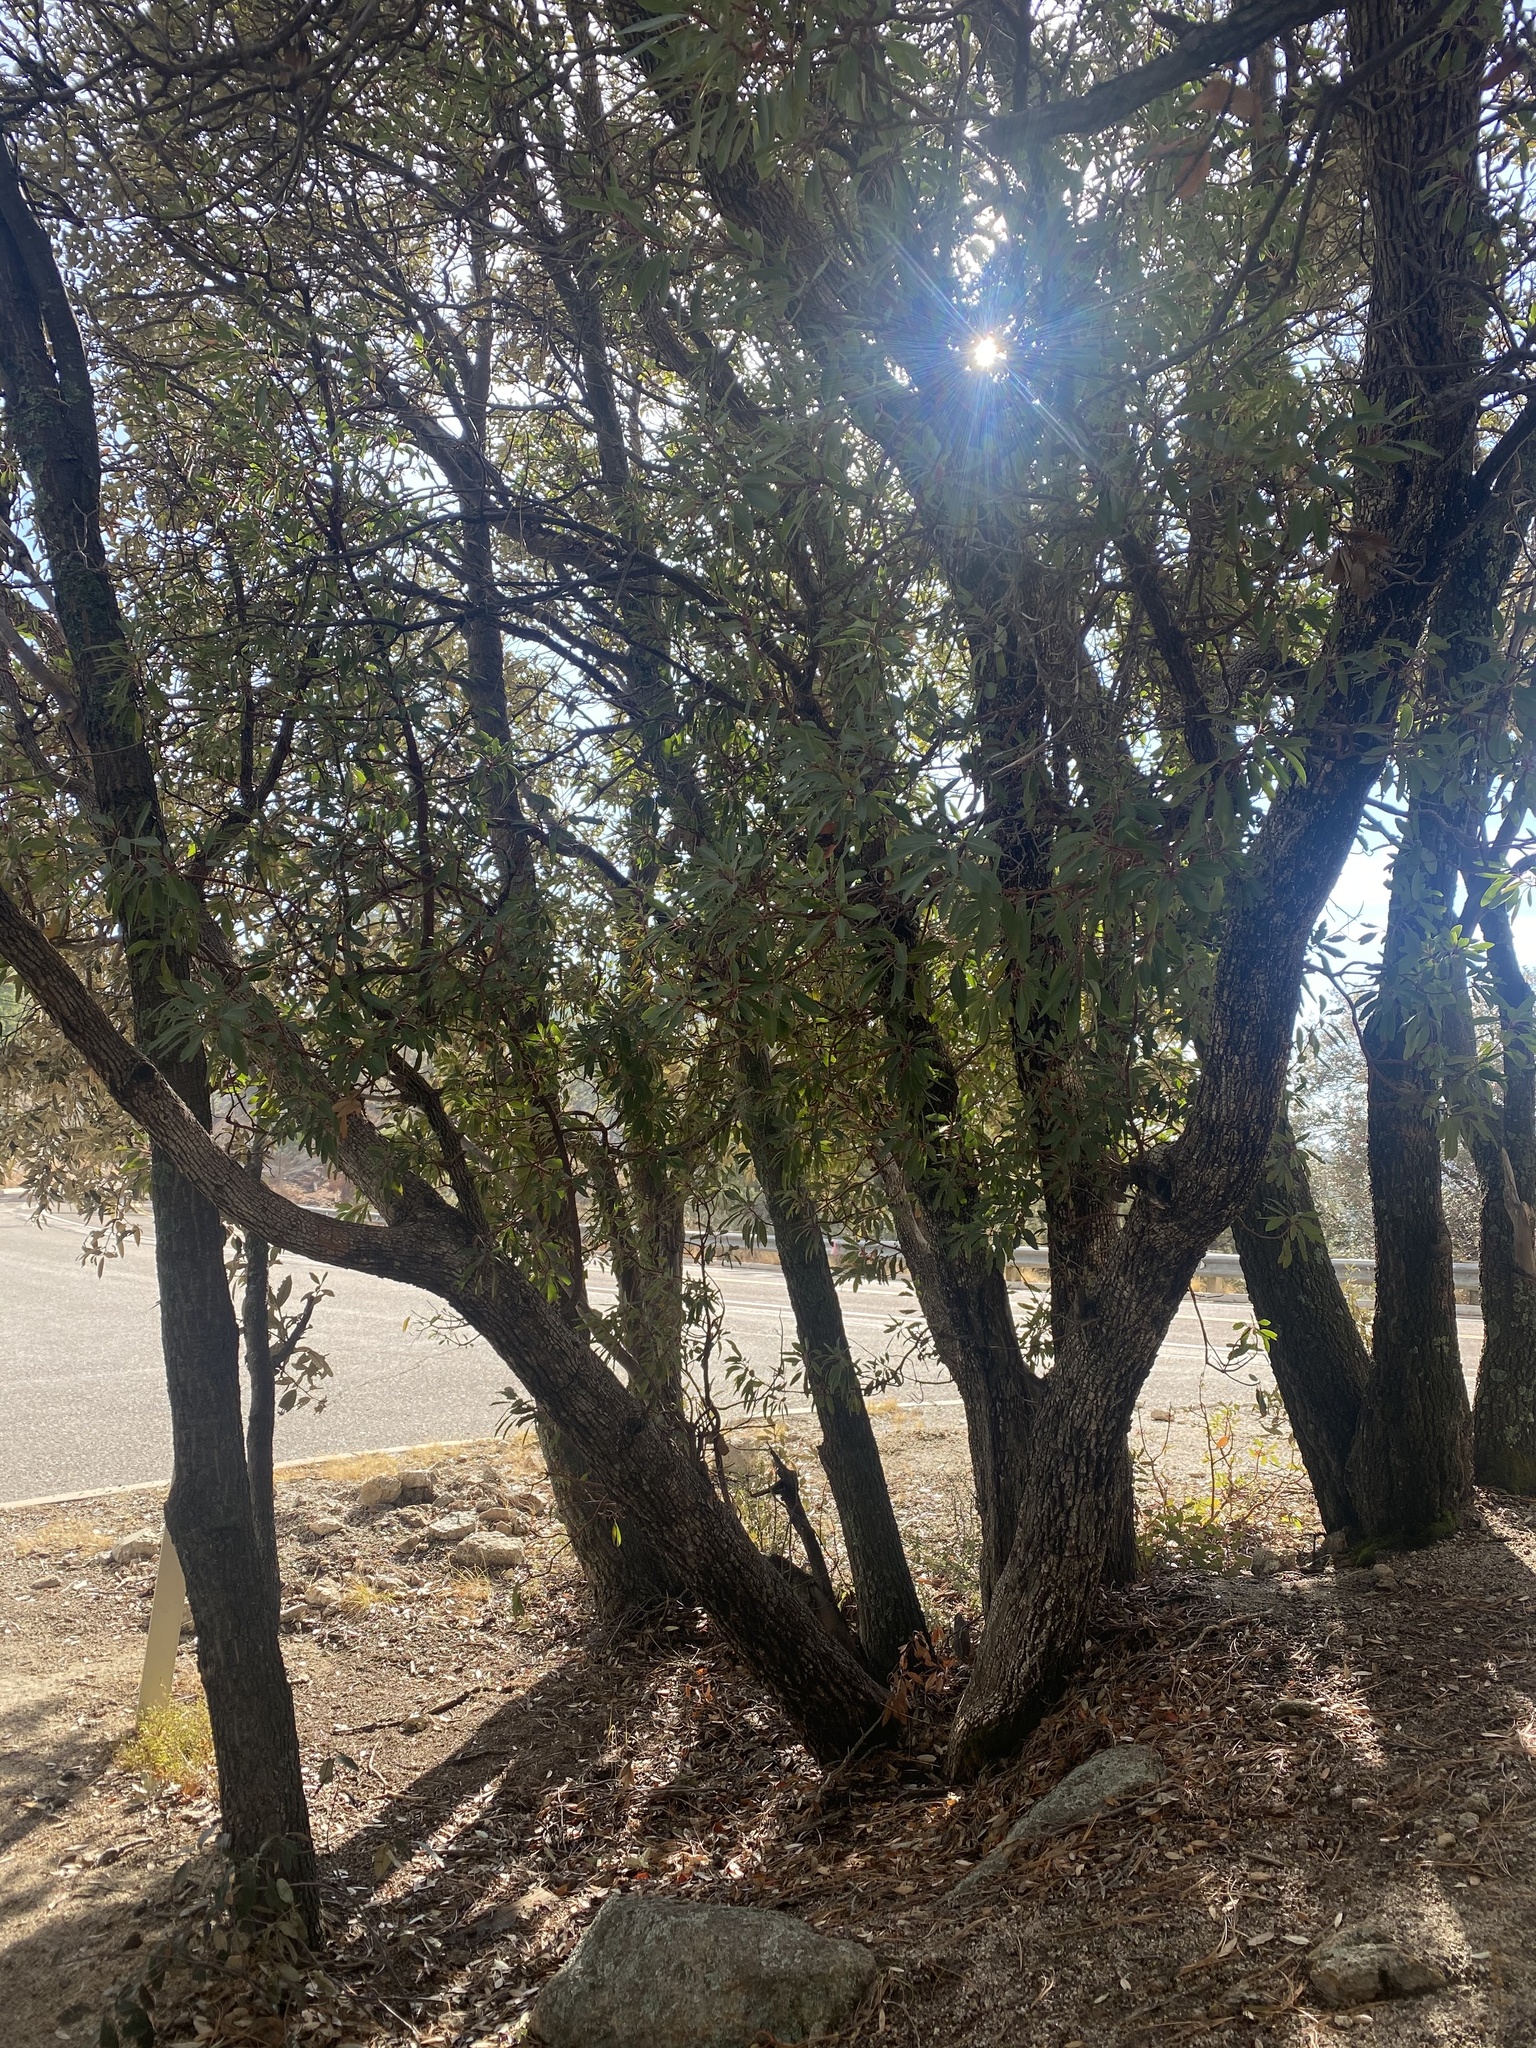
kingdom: Plantae
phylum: Tracheophyta
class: Magnoliopsida
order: Ericales
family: Ericaceae
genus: Arbutus
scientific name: Arbutus arizonica
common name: Arizona madrone
